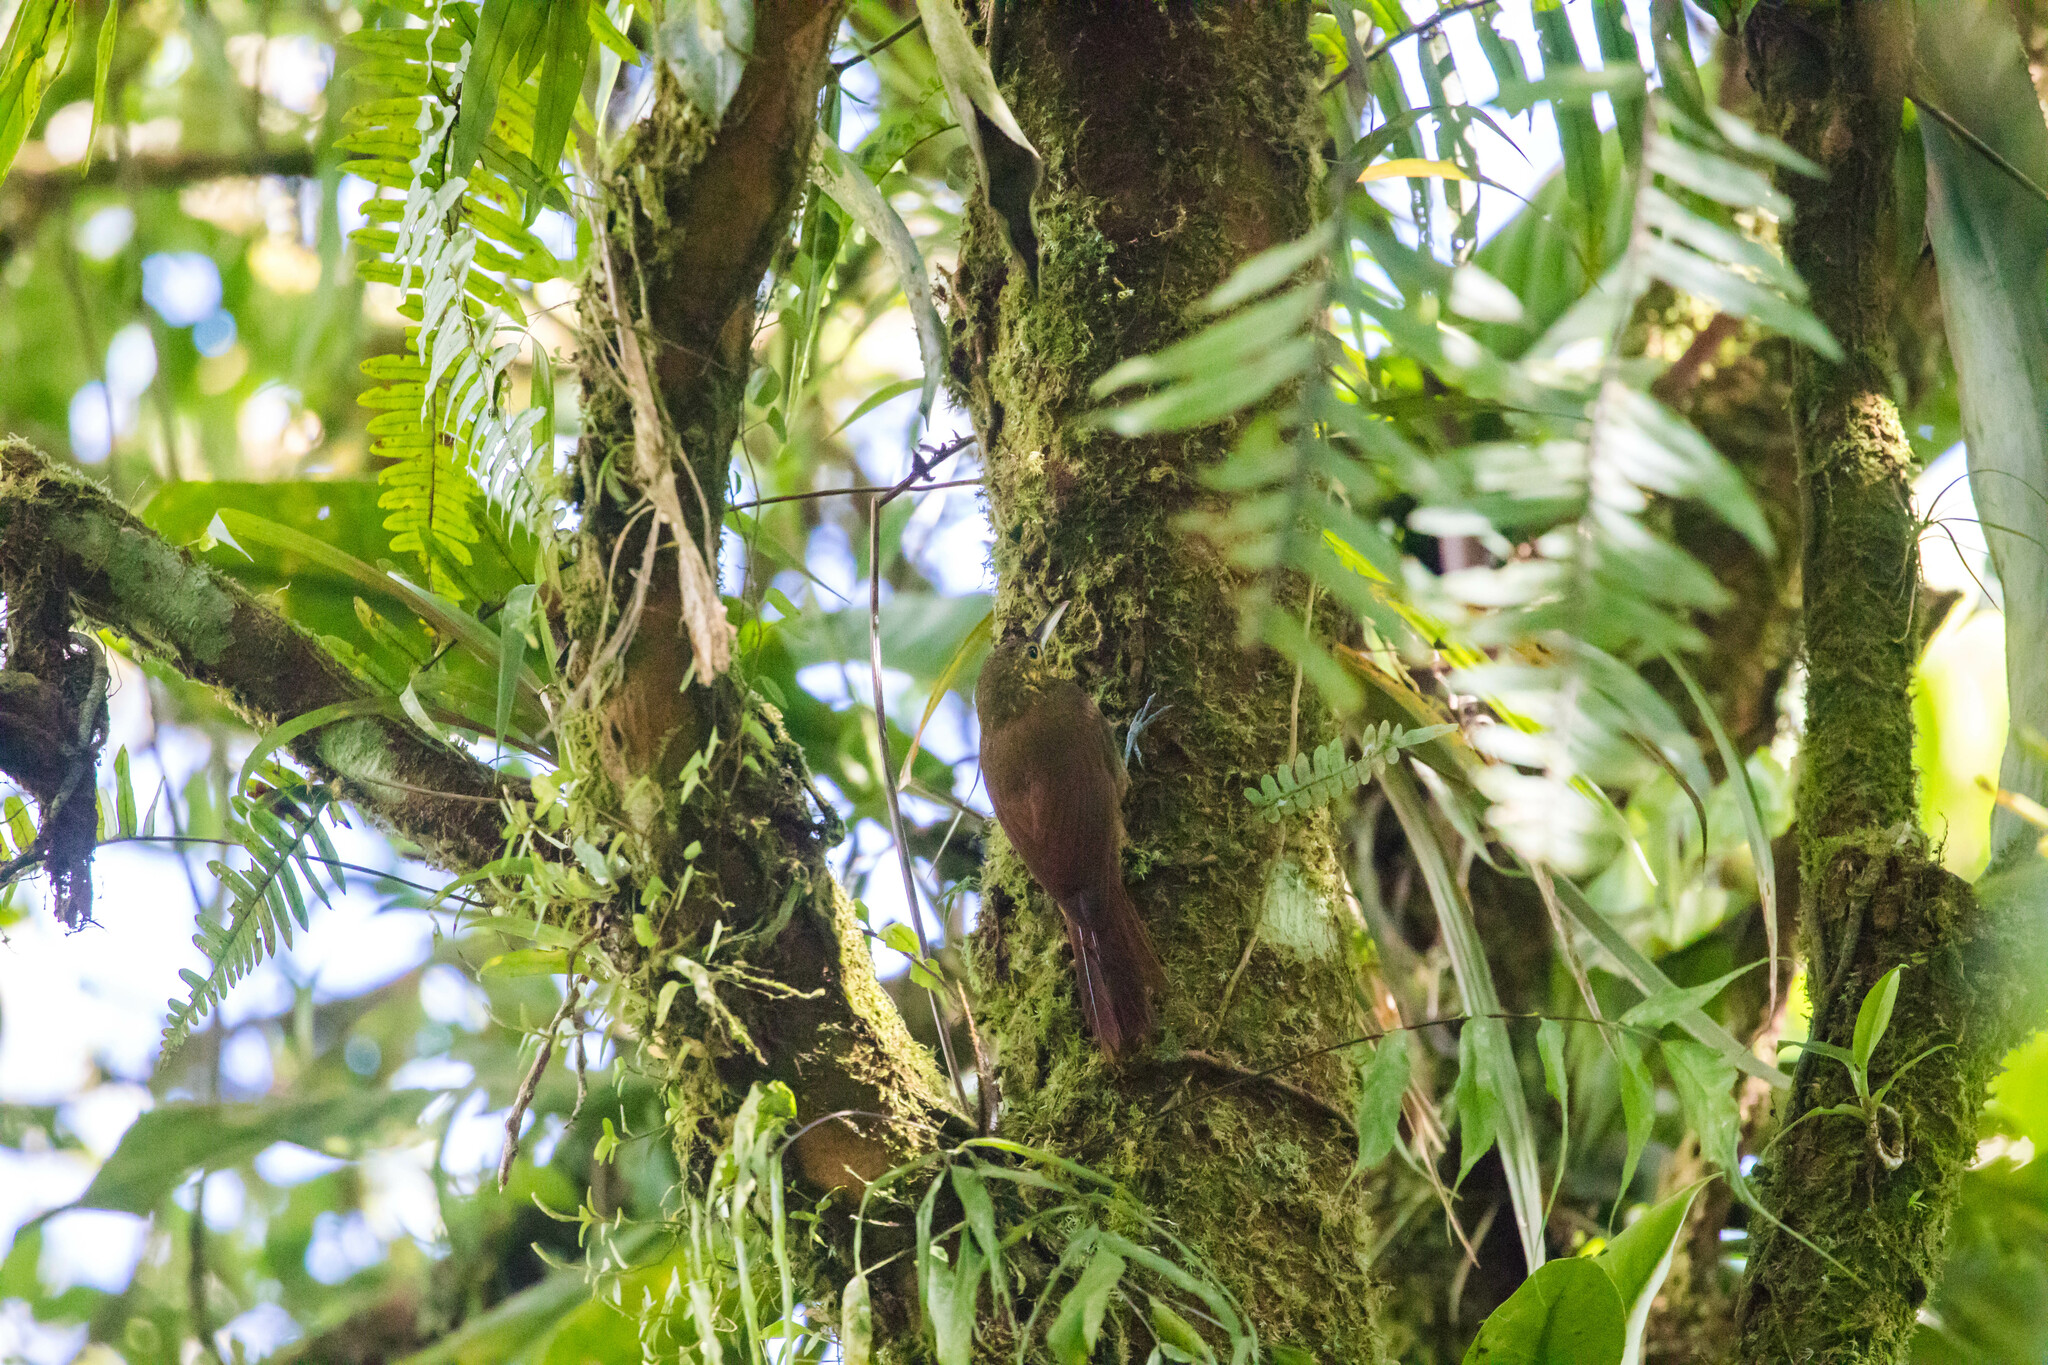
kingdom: Animalia
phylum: Chordata
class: Aves
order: Passeriformes
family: Furnariidae
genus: Xiphorhynchus
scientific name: Xiphorhynchus erythropygius
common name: Spotted woodcreeper
